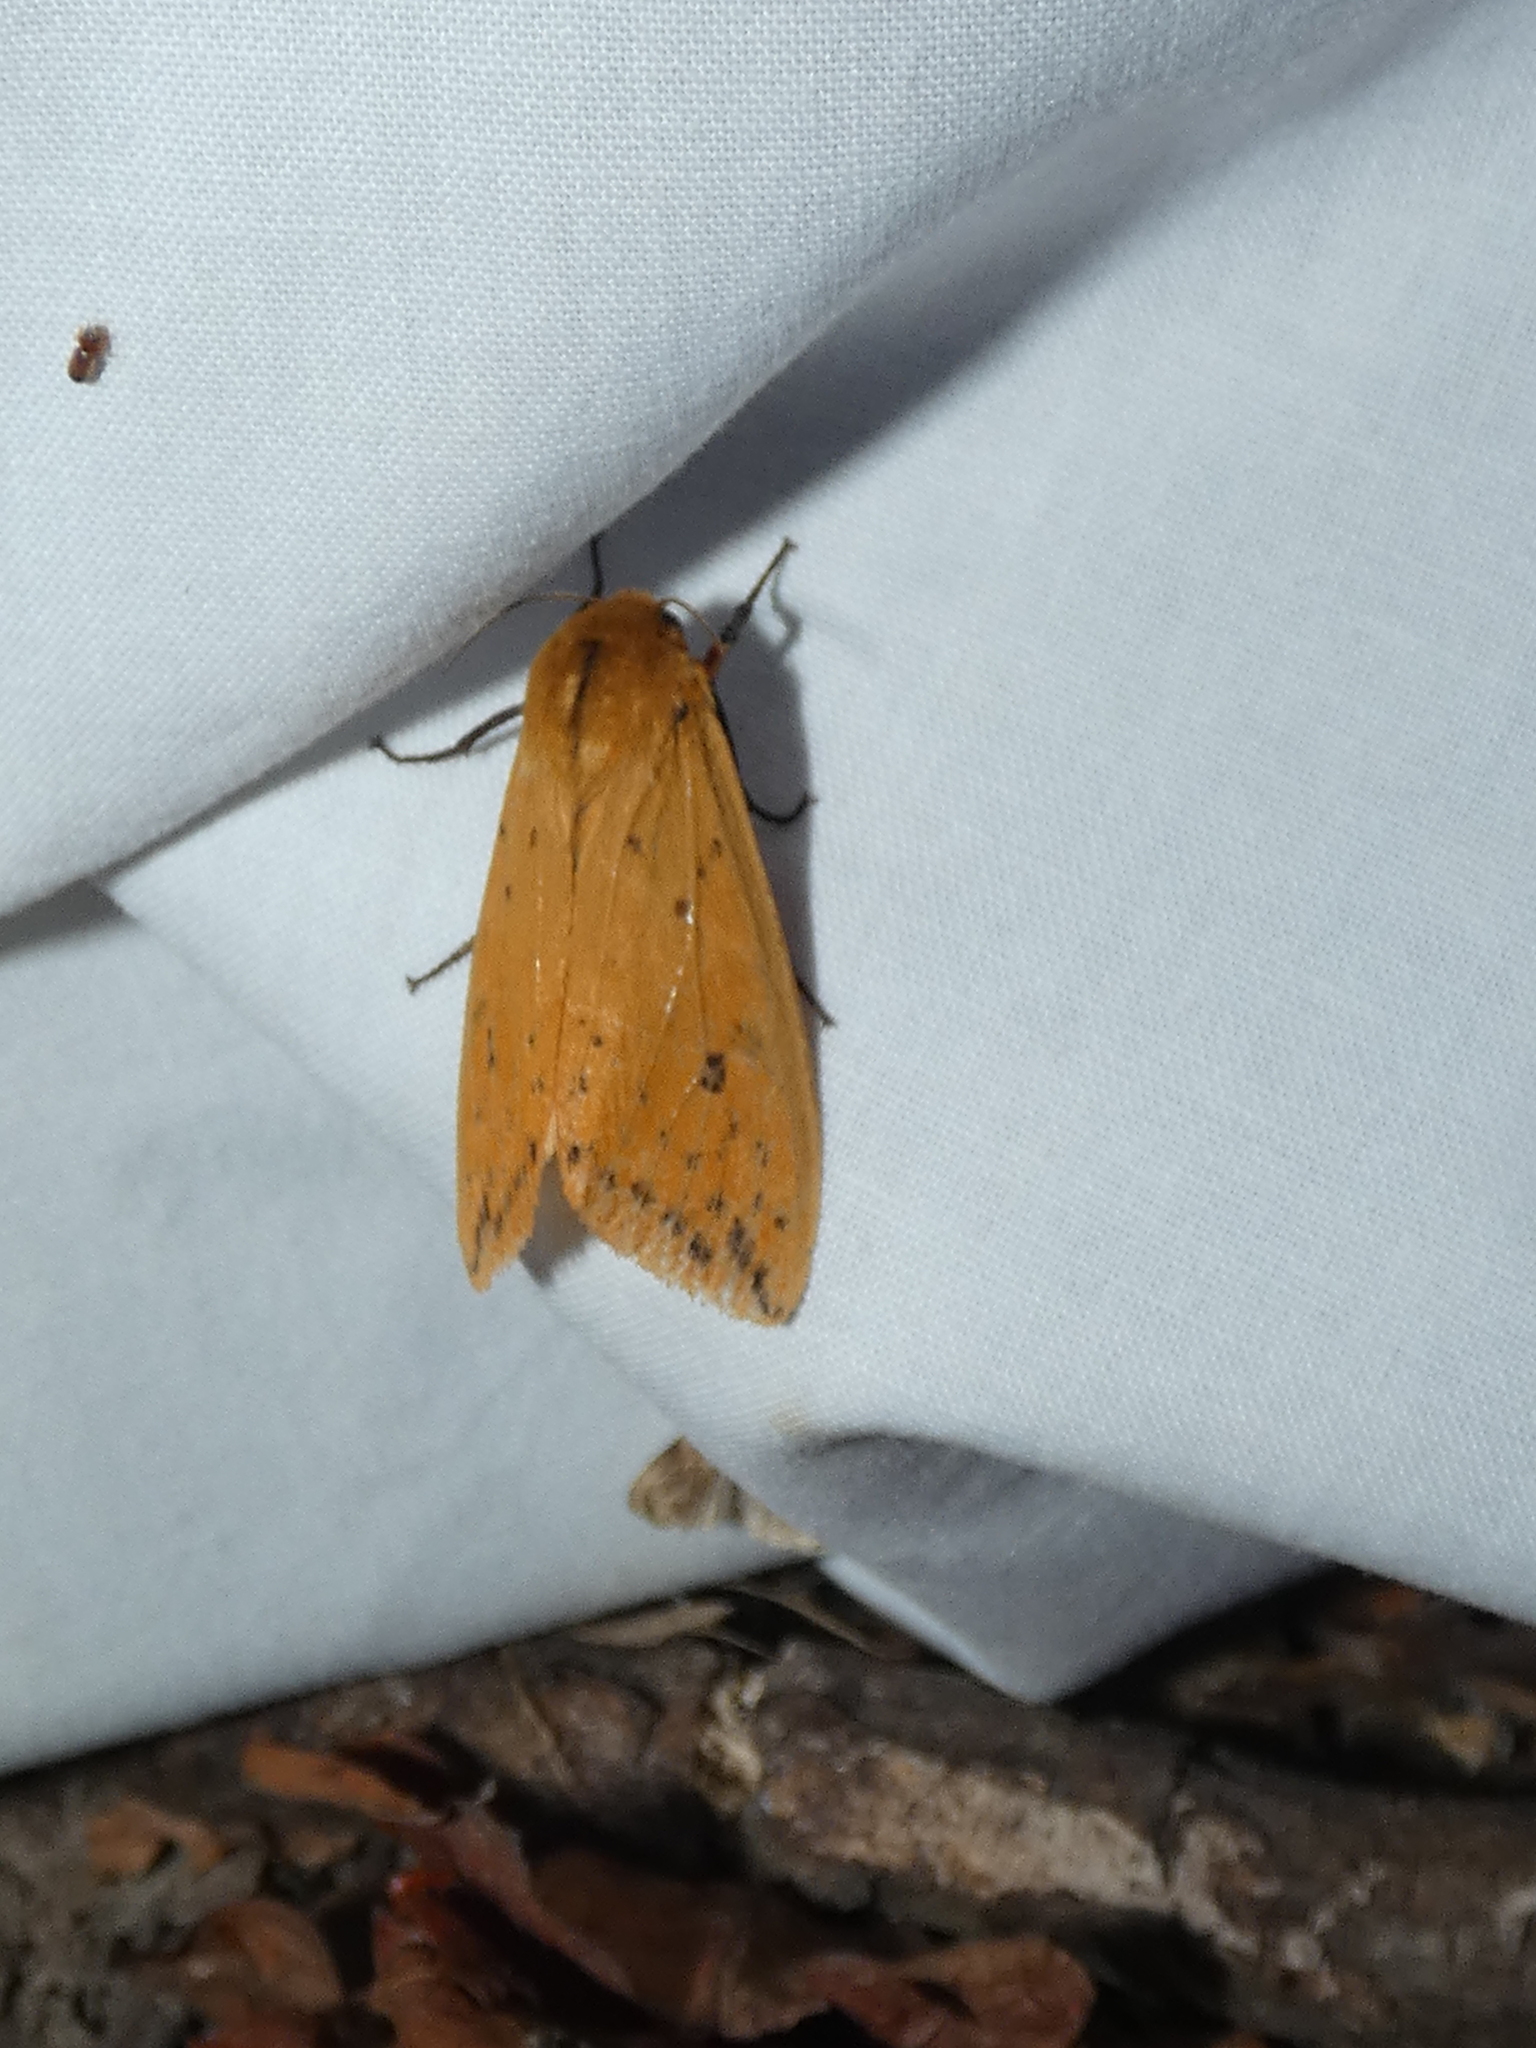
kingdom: Animalia
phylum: Arthropoda
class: Insecta
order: Lepidoptera
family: Erebidae
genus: Pyrrharctia
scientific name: Pyrrharctia isabella
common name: Isabella tiger moth
